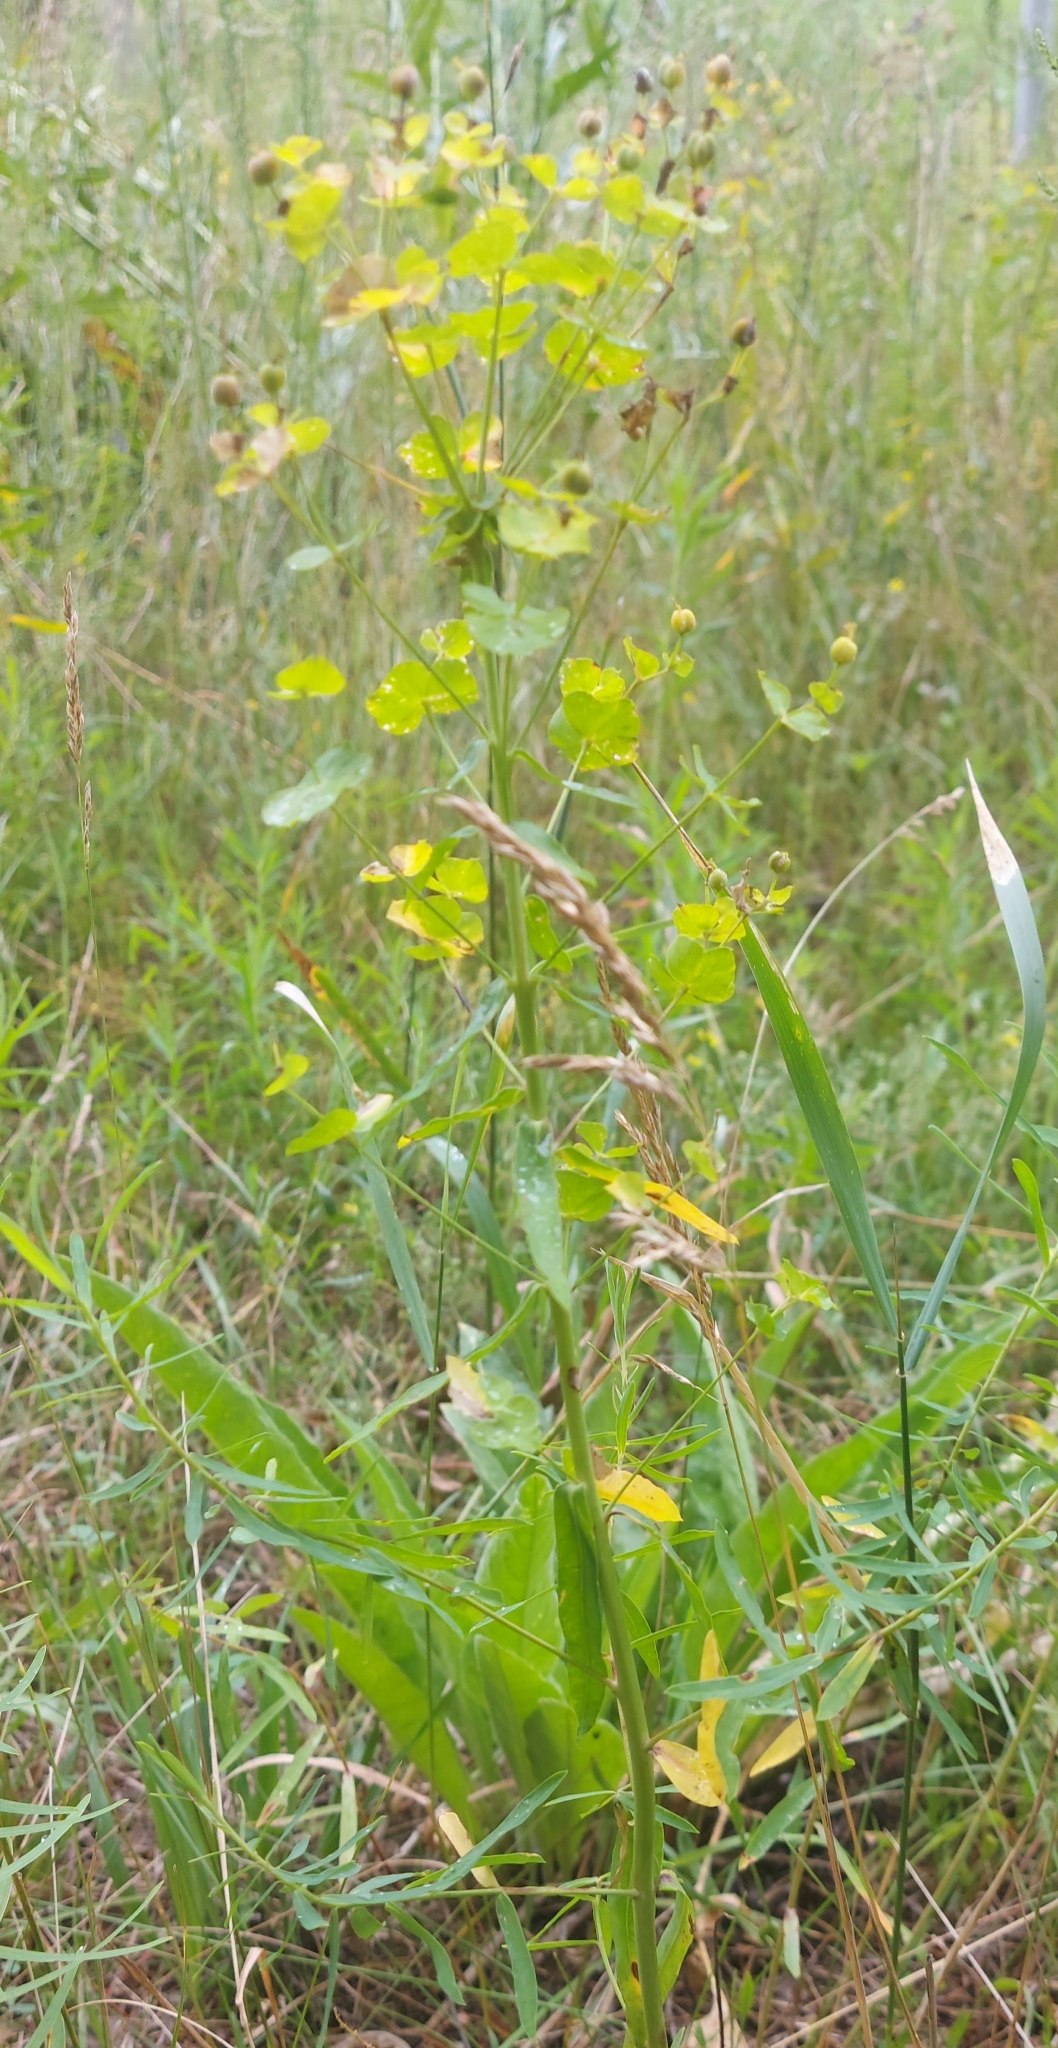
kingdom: Plantae
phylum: Tracheophyta
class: Magnoliopsida
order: Malpighiales
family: Euphorbiaceae
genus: Euphorbia
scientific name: Euphorbia virgata
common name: Leafy spurge
